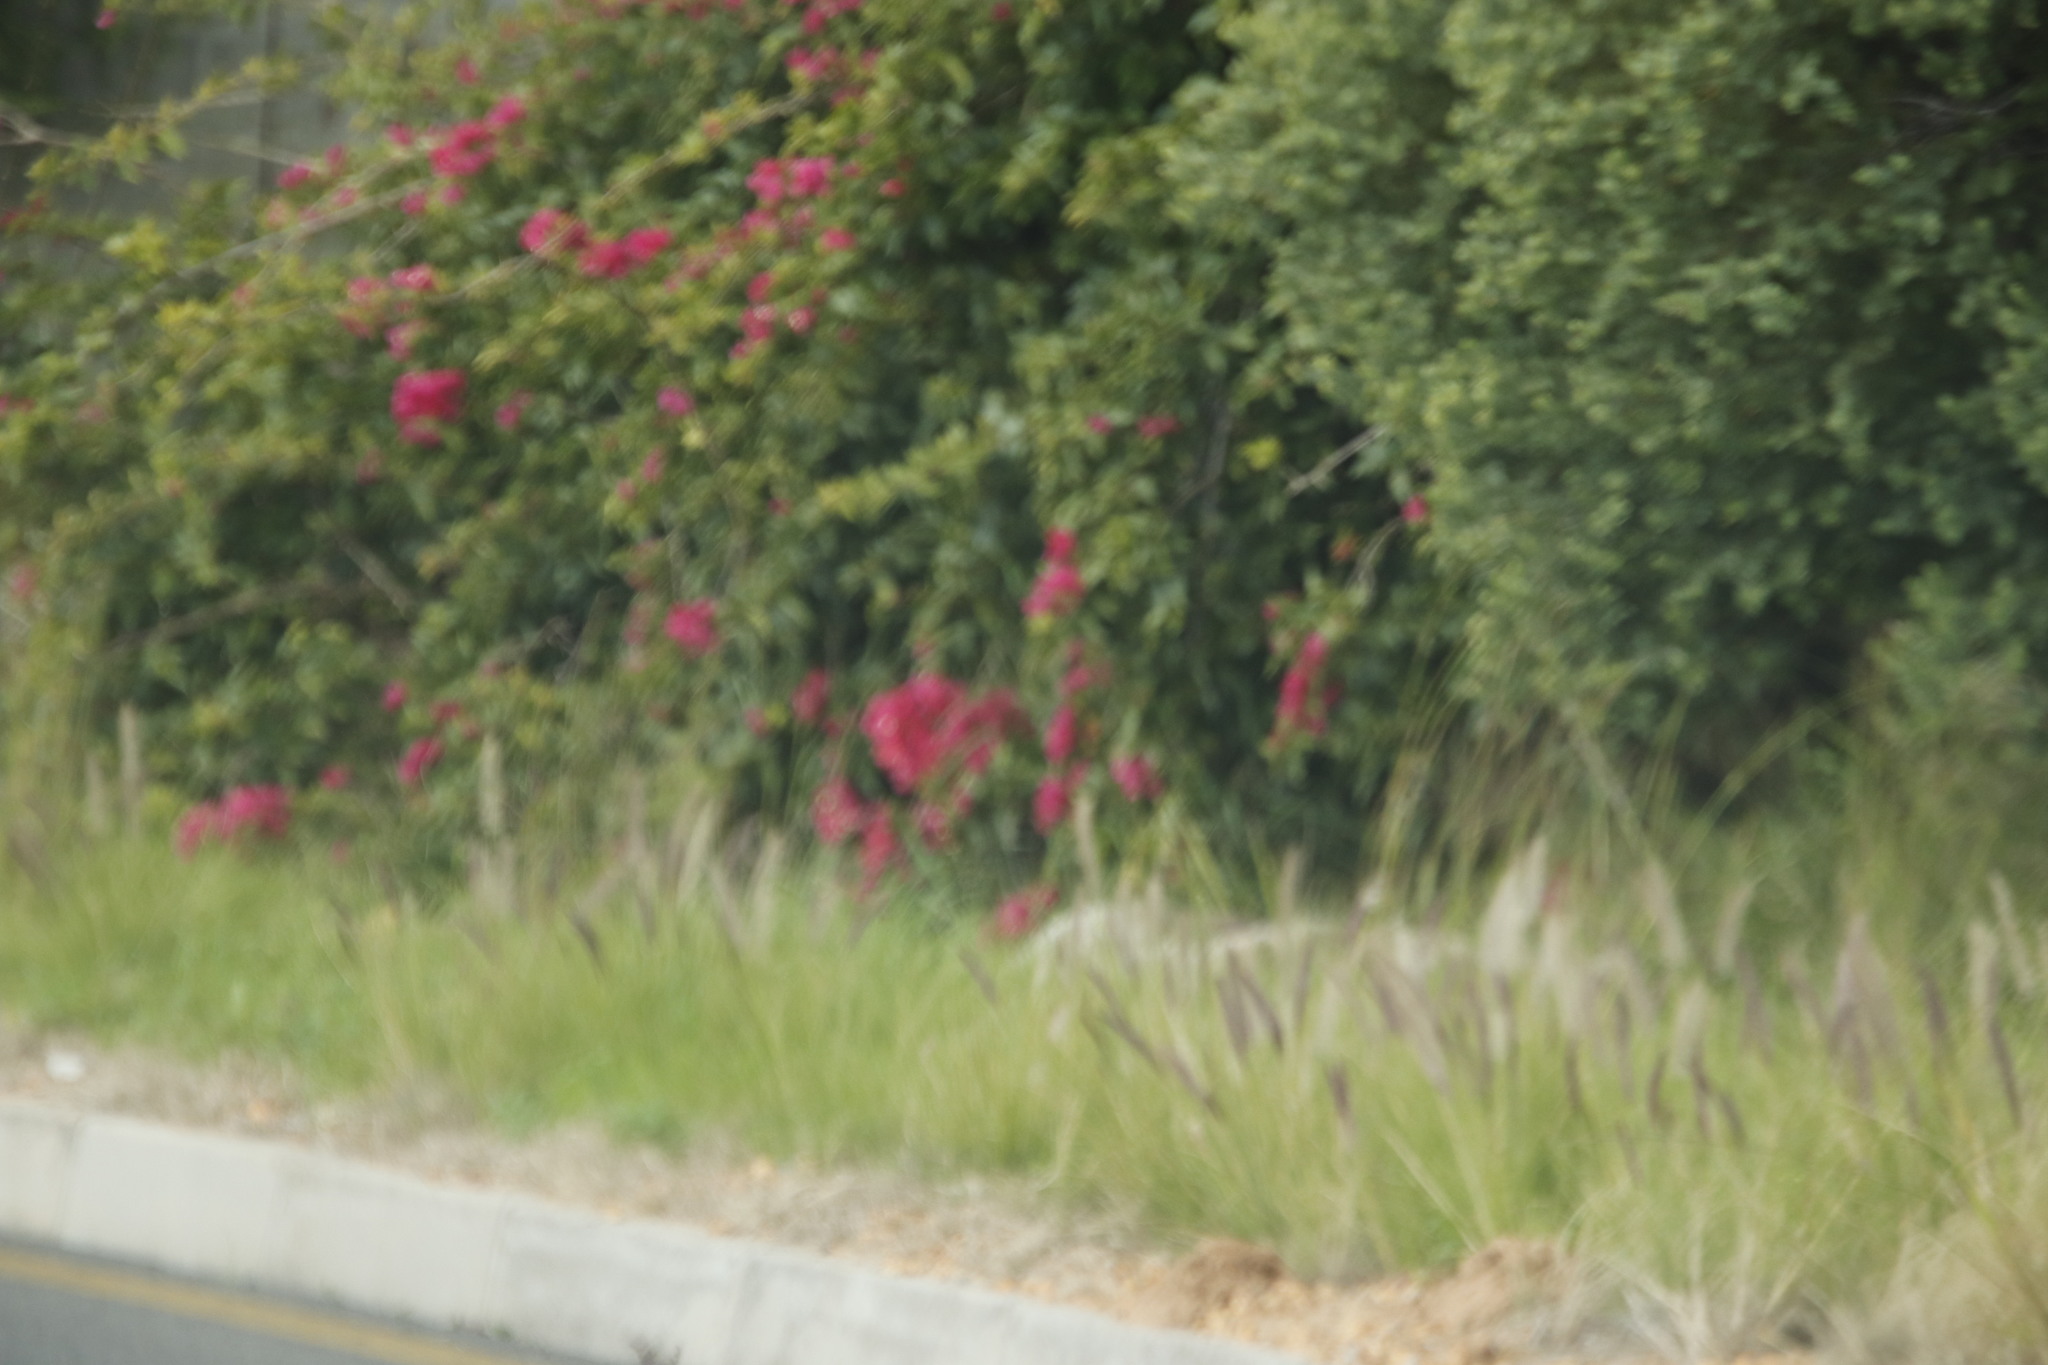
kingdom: Plantae
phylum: Tracheophyta
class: Liliopsida
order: Poales
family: Poaceae
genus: Cenchrus
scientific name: Cenchrus setaceus
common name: Crimson fountaingrass
